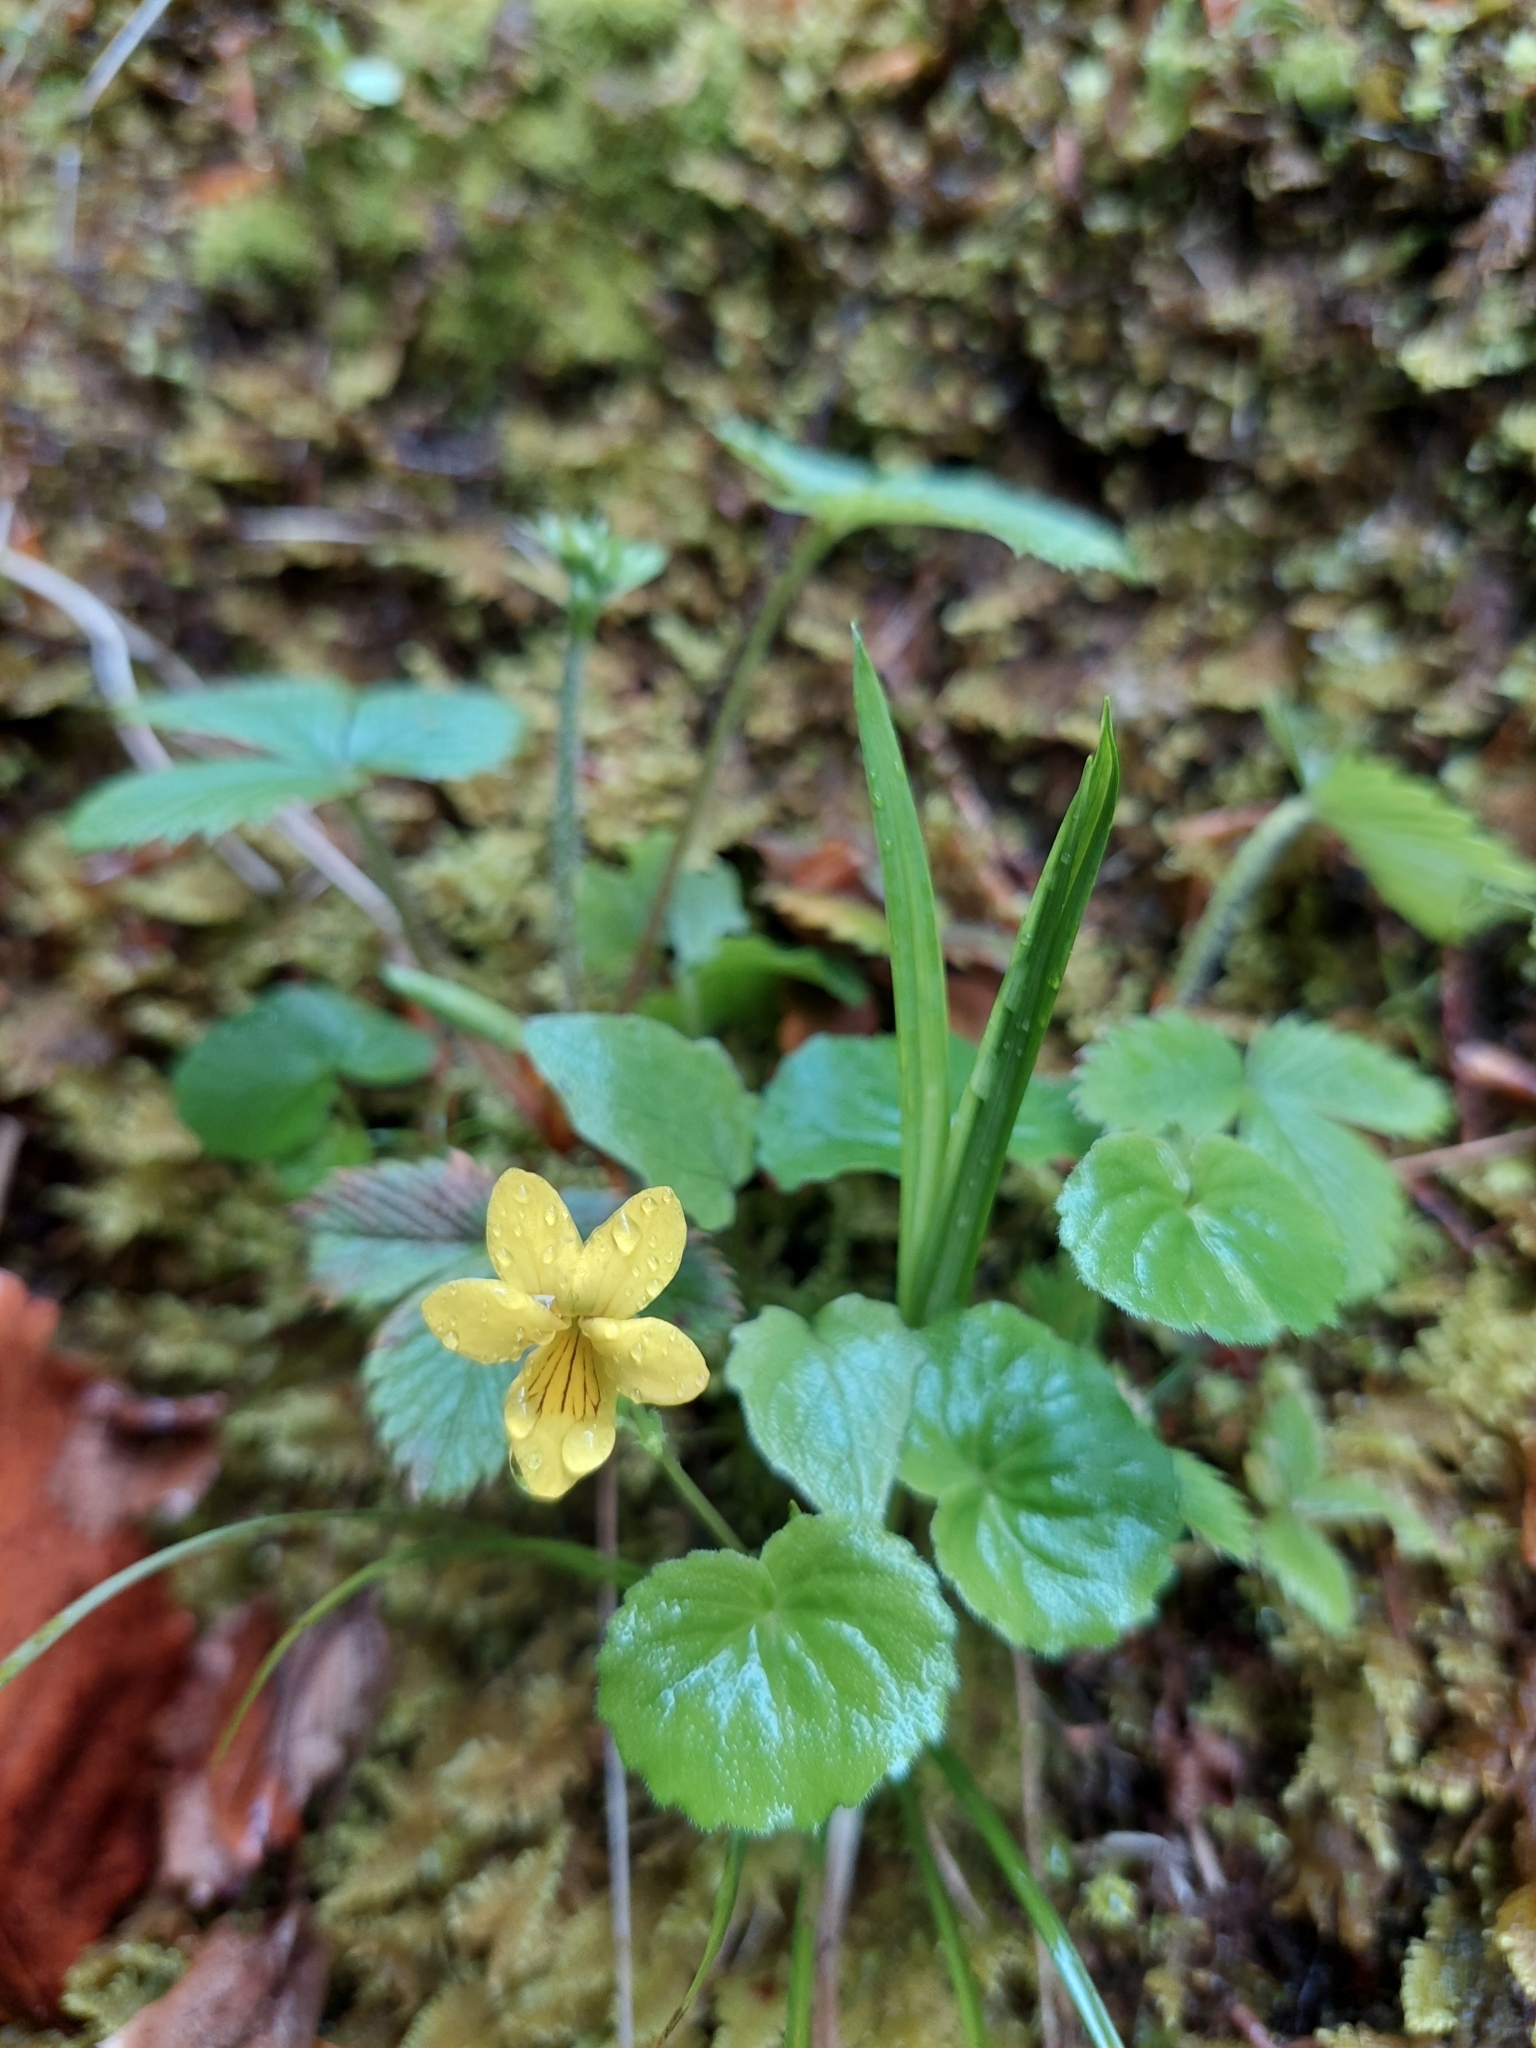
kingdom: Plantae
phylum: Tracheophyta
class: Magnoliopsida
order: Malpighiales
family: Violaceae
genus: Viola
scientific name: Viola biflora
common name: Alpine yellow violet
